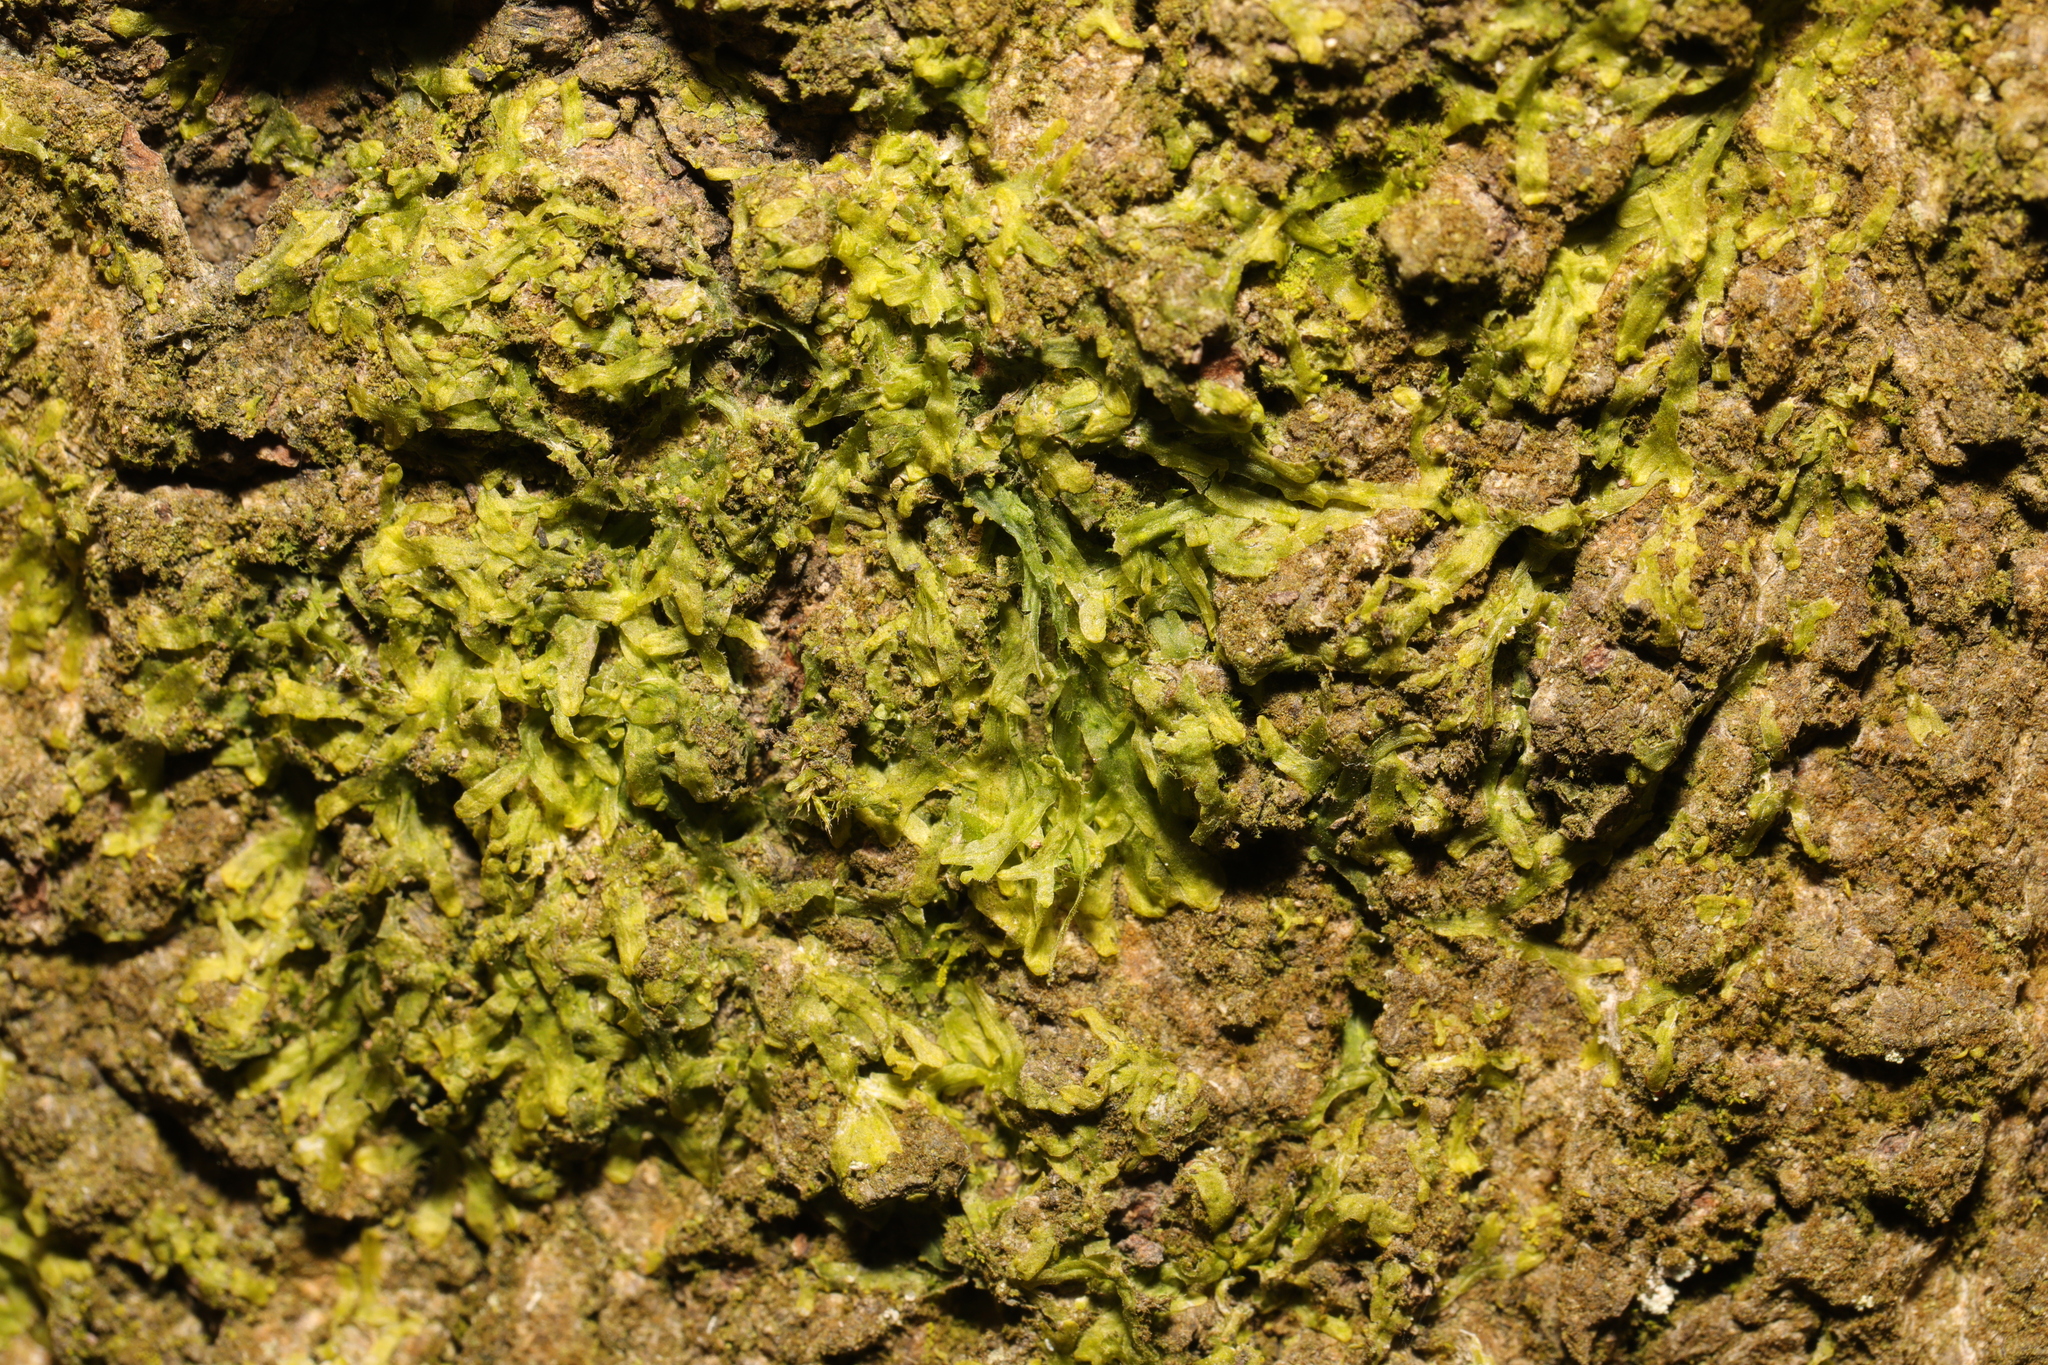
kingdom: Plantae
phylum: Marchantiophyta
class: Jungermanniopsida
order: Metzgeriales
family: Metzgeriaceae
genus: Metzgeria
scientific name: Metzgeria furcata
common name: Forked veilwort
